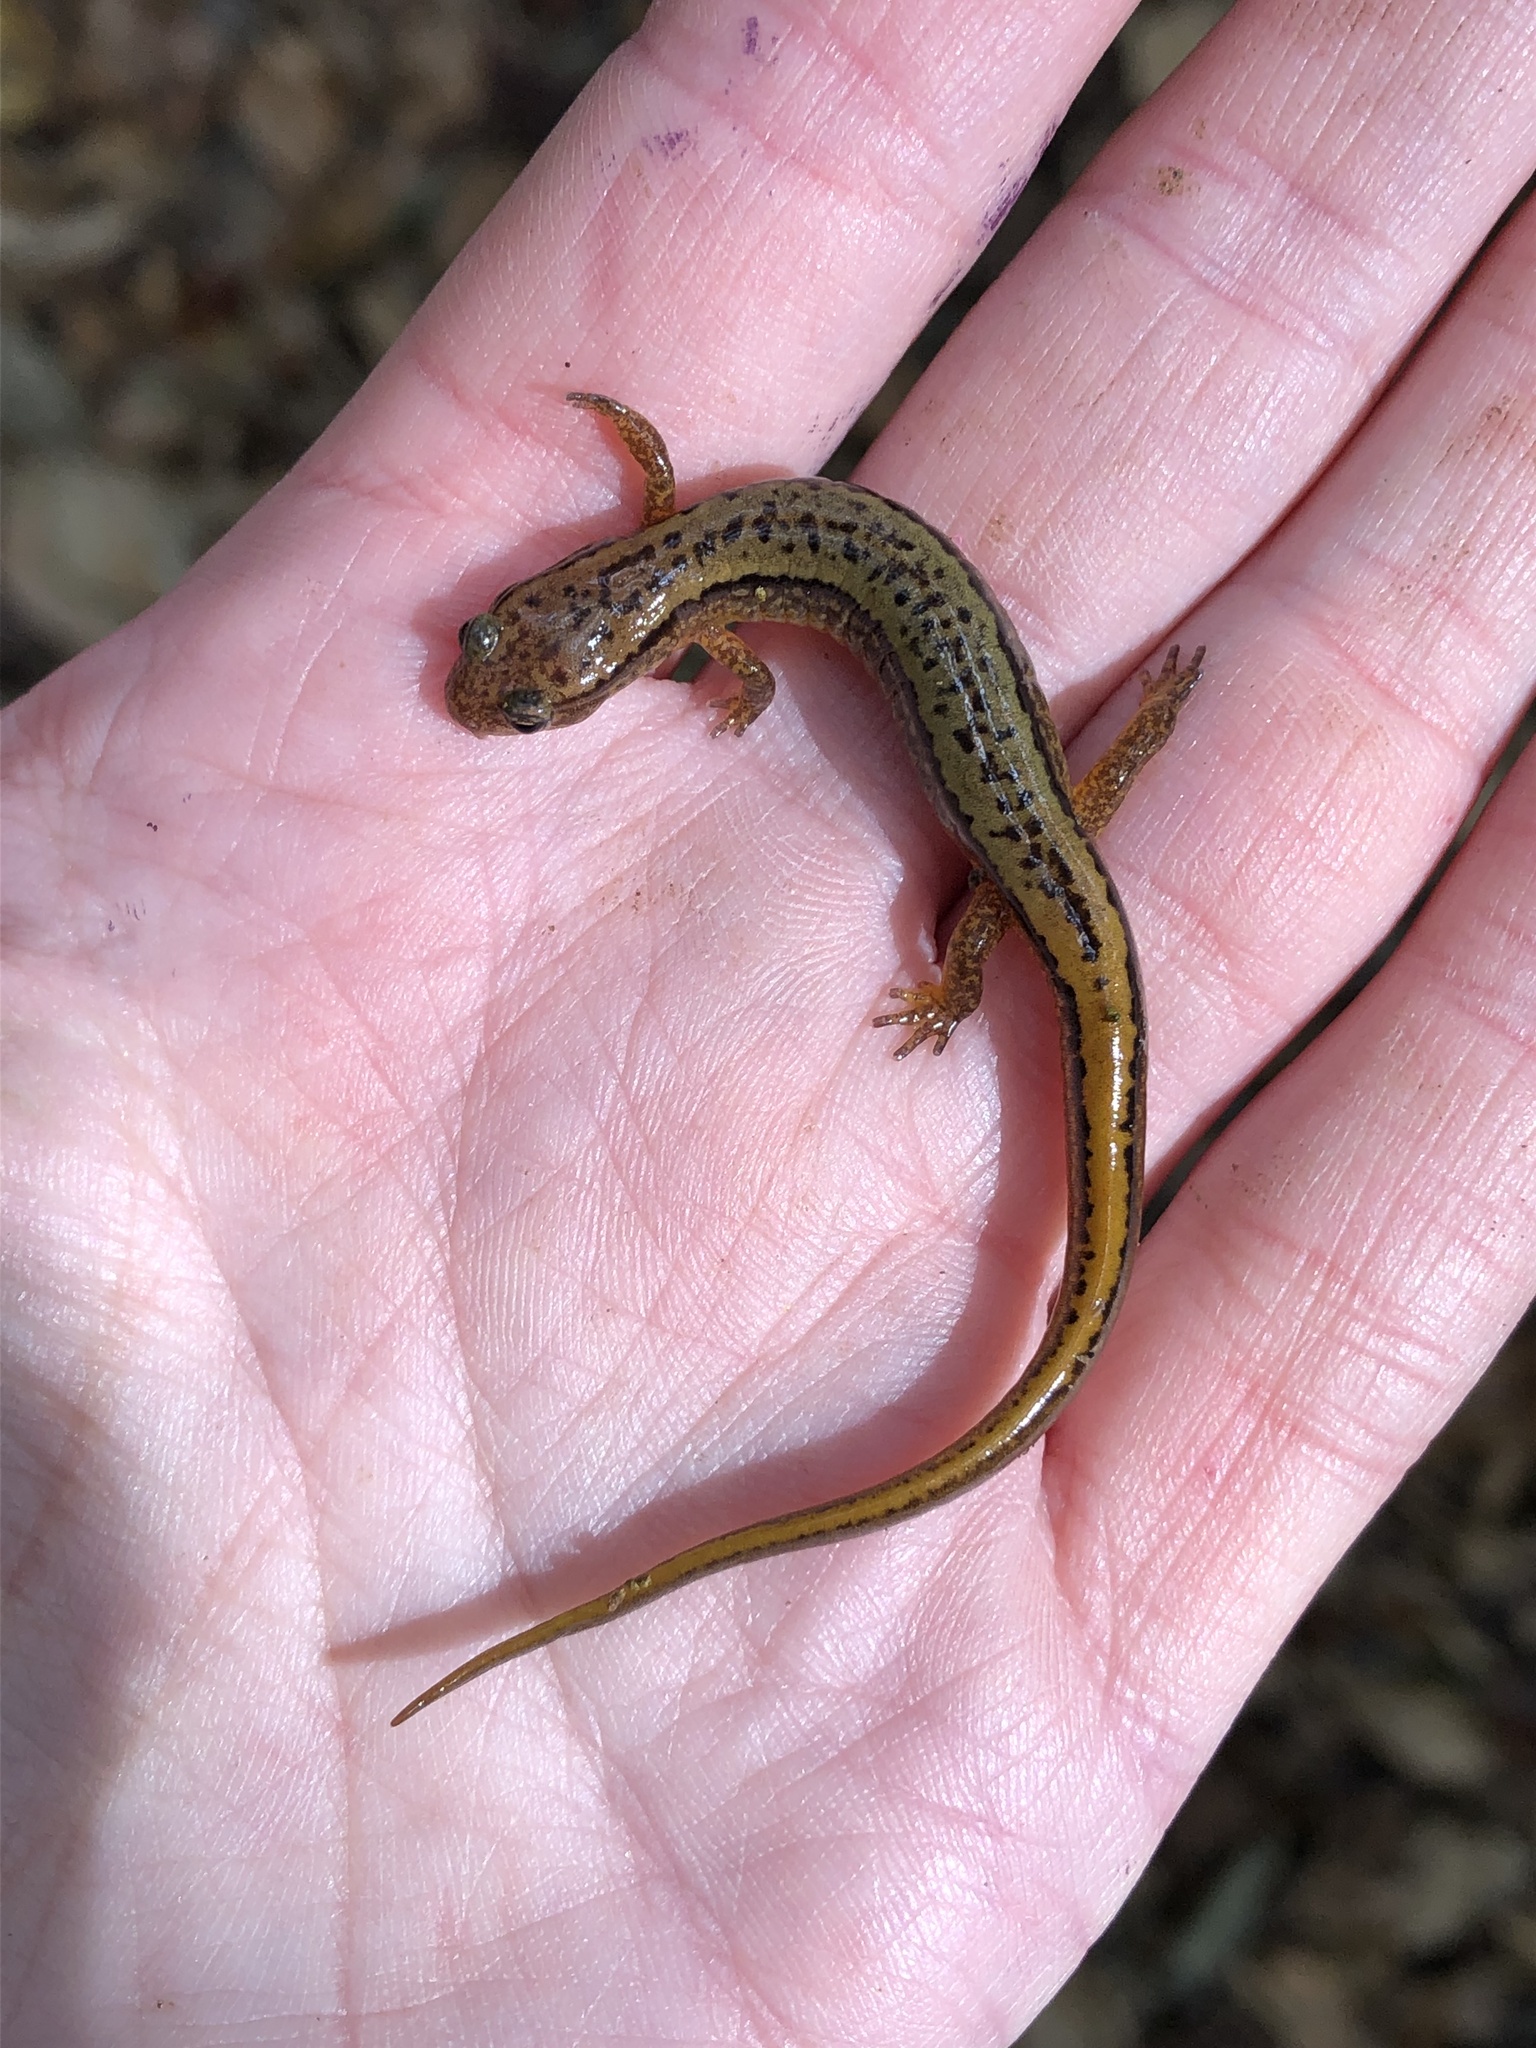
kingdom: Animalia
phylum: Chordata
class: Amphibia
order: Caudata
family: Plethodontidae
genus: Eurycea
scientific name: Eurycea bislineata
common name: Northern two-lined salamander
